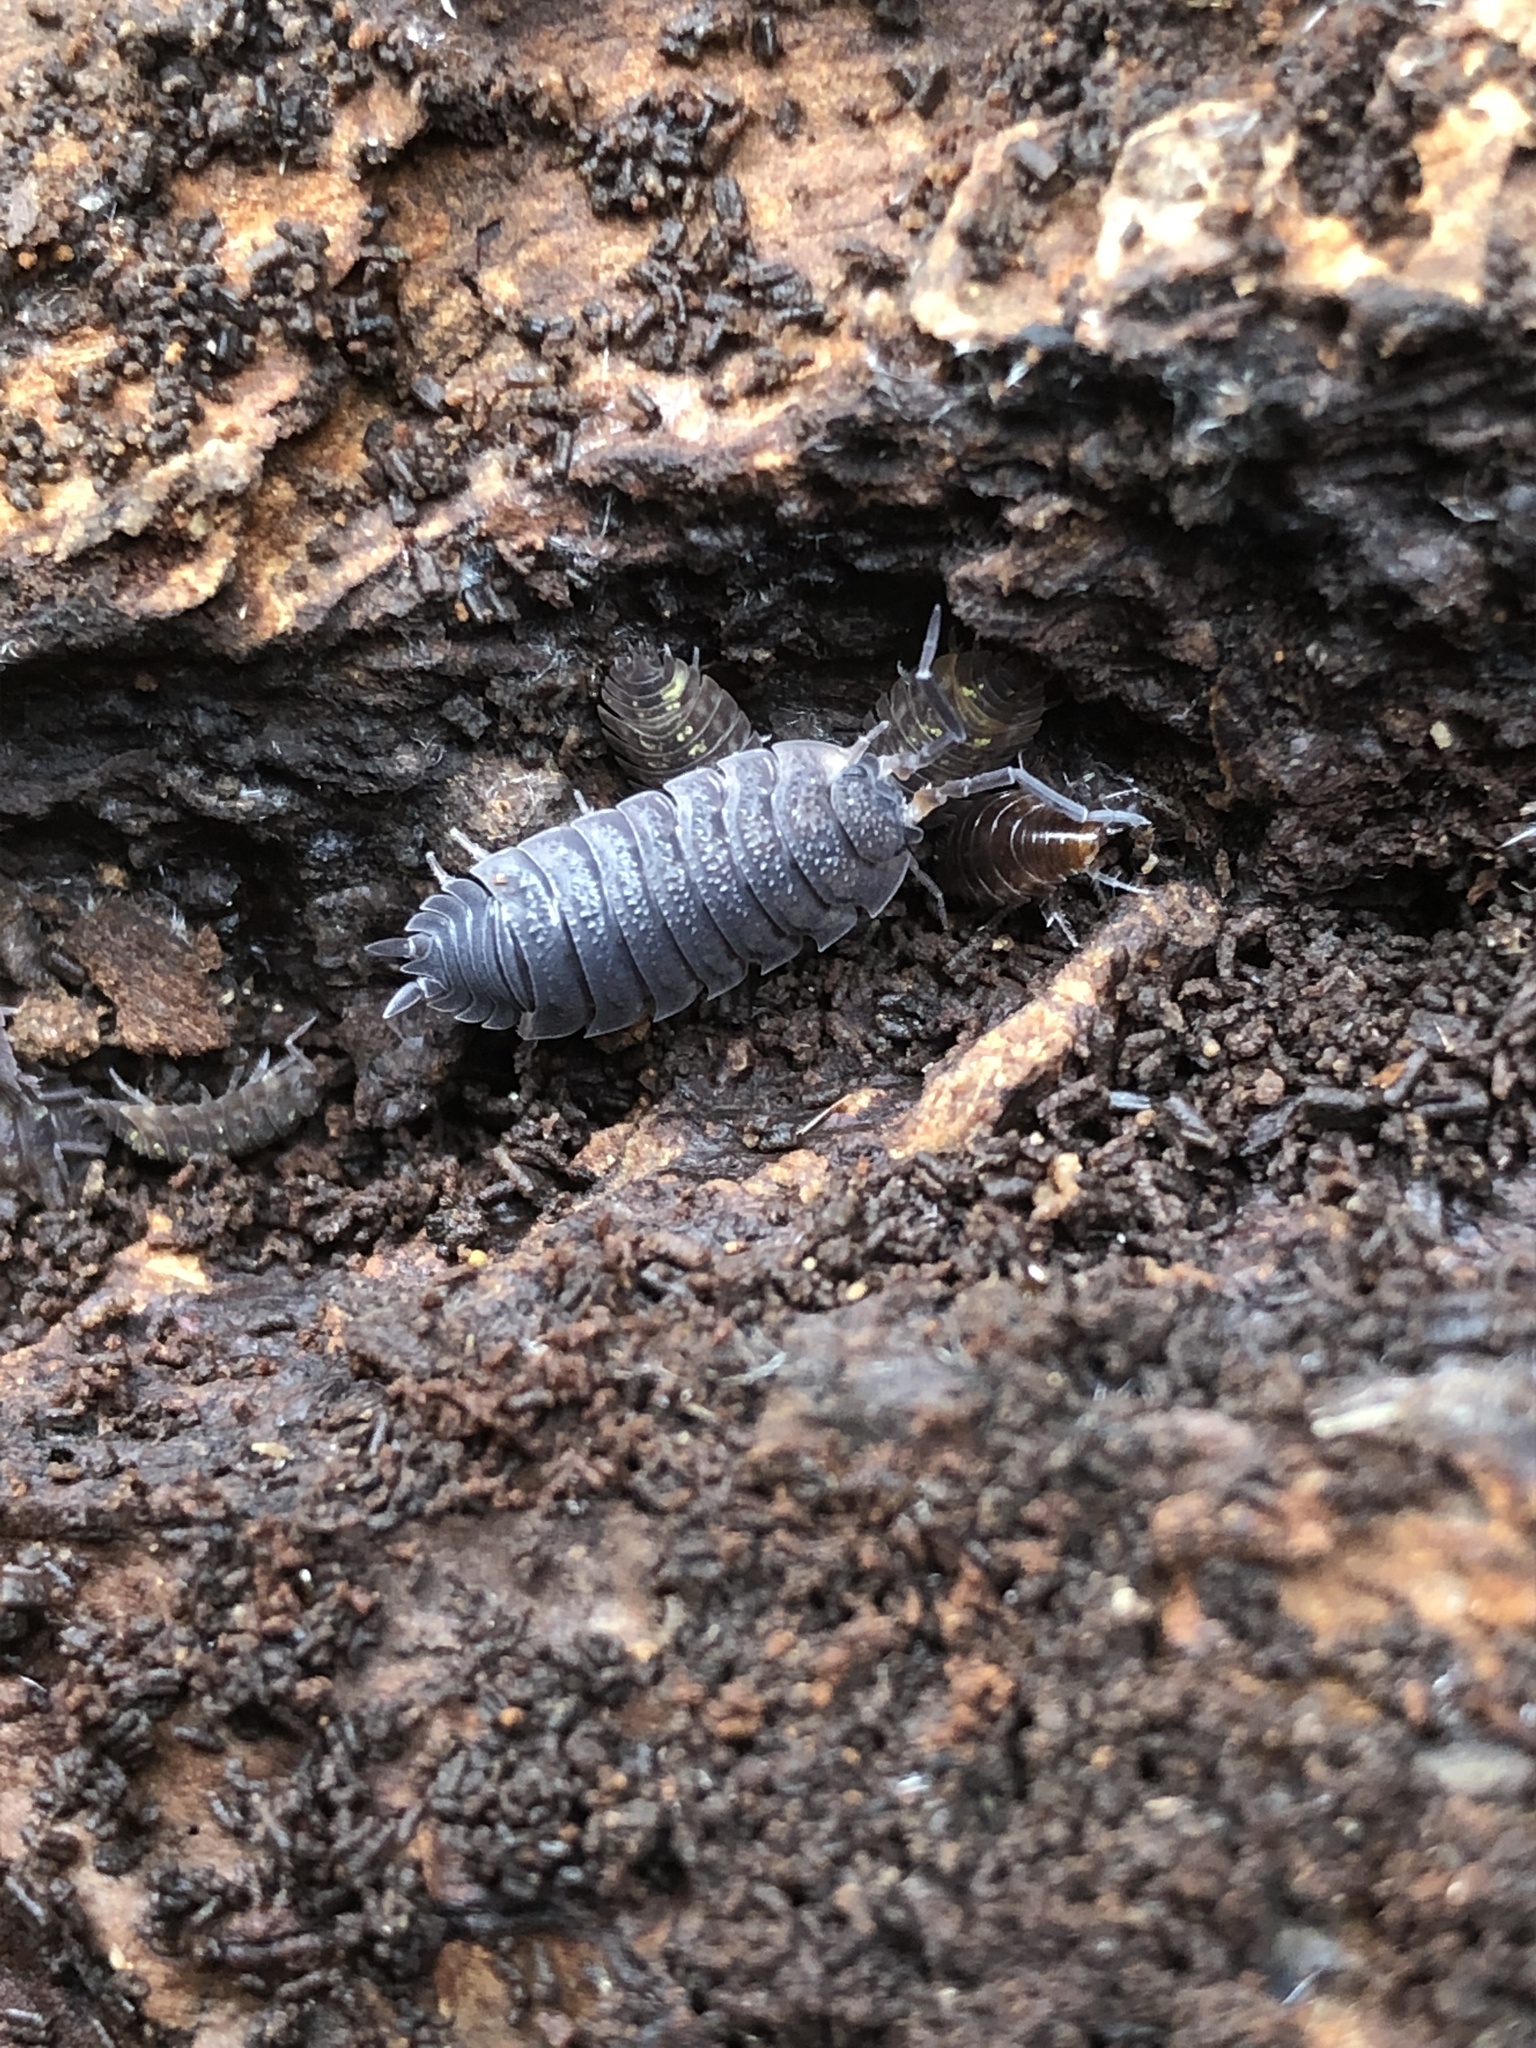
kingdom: Animalia
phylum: Arthropoda
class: Malacostraca
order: Isopoda
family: Porcellionidae
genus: Porcellio
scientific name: Porcellio scaber
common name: Common rough woodlouse
